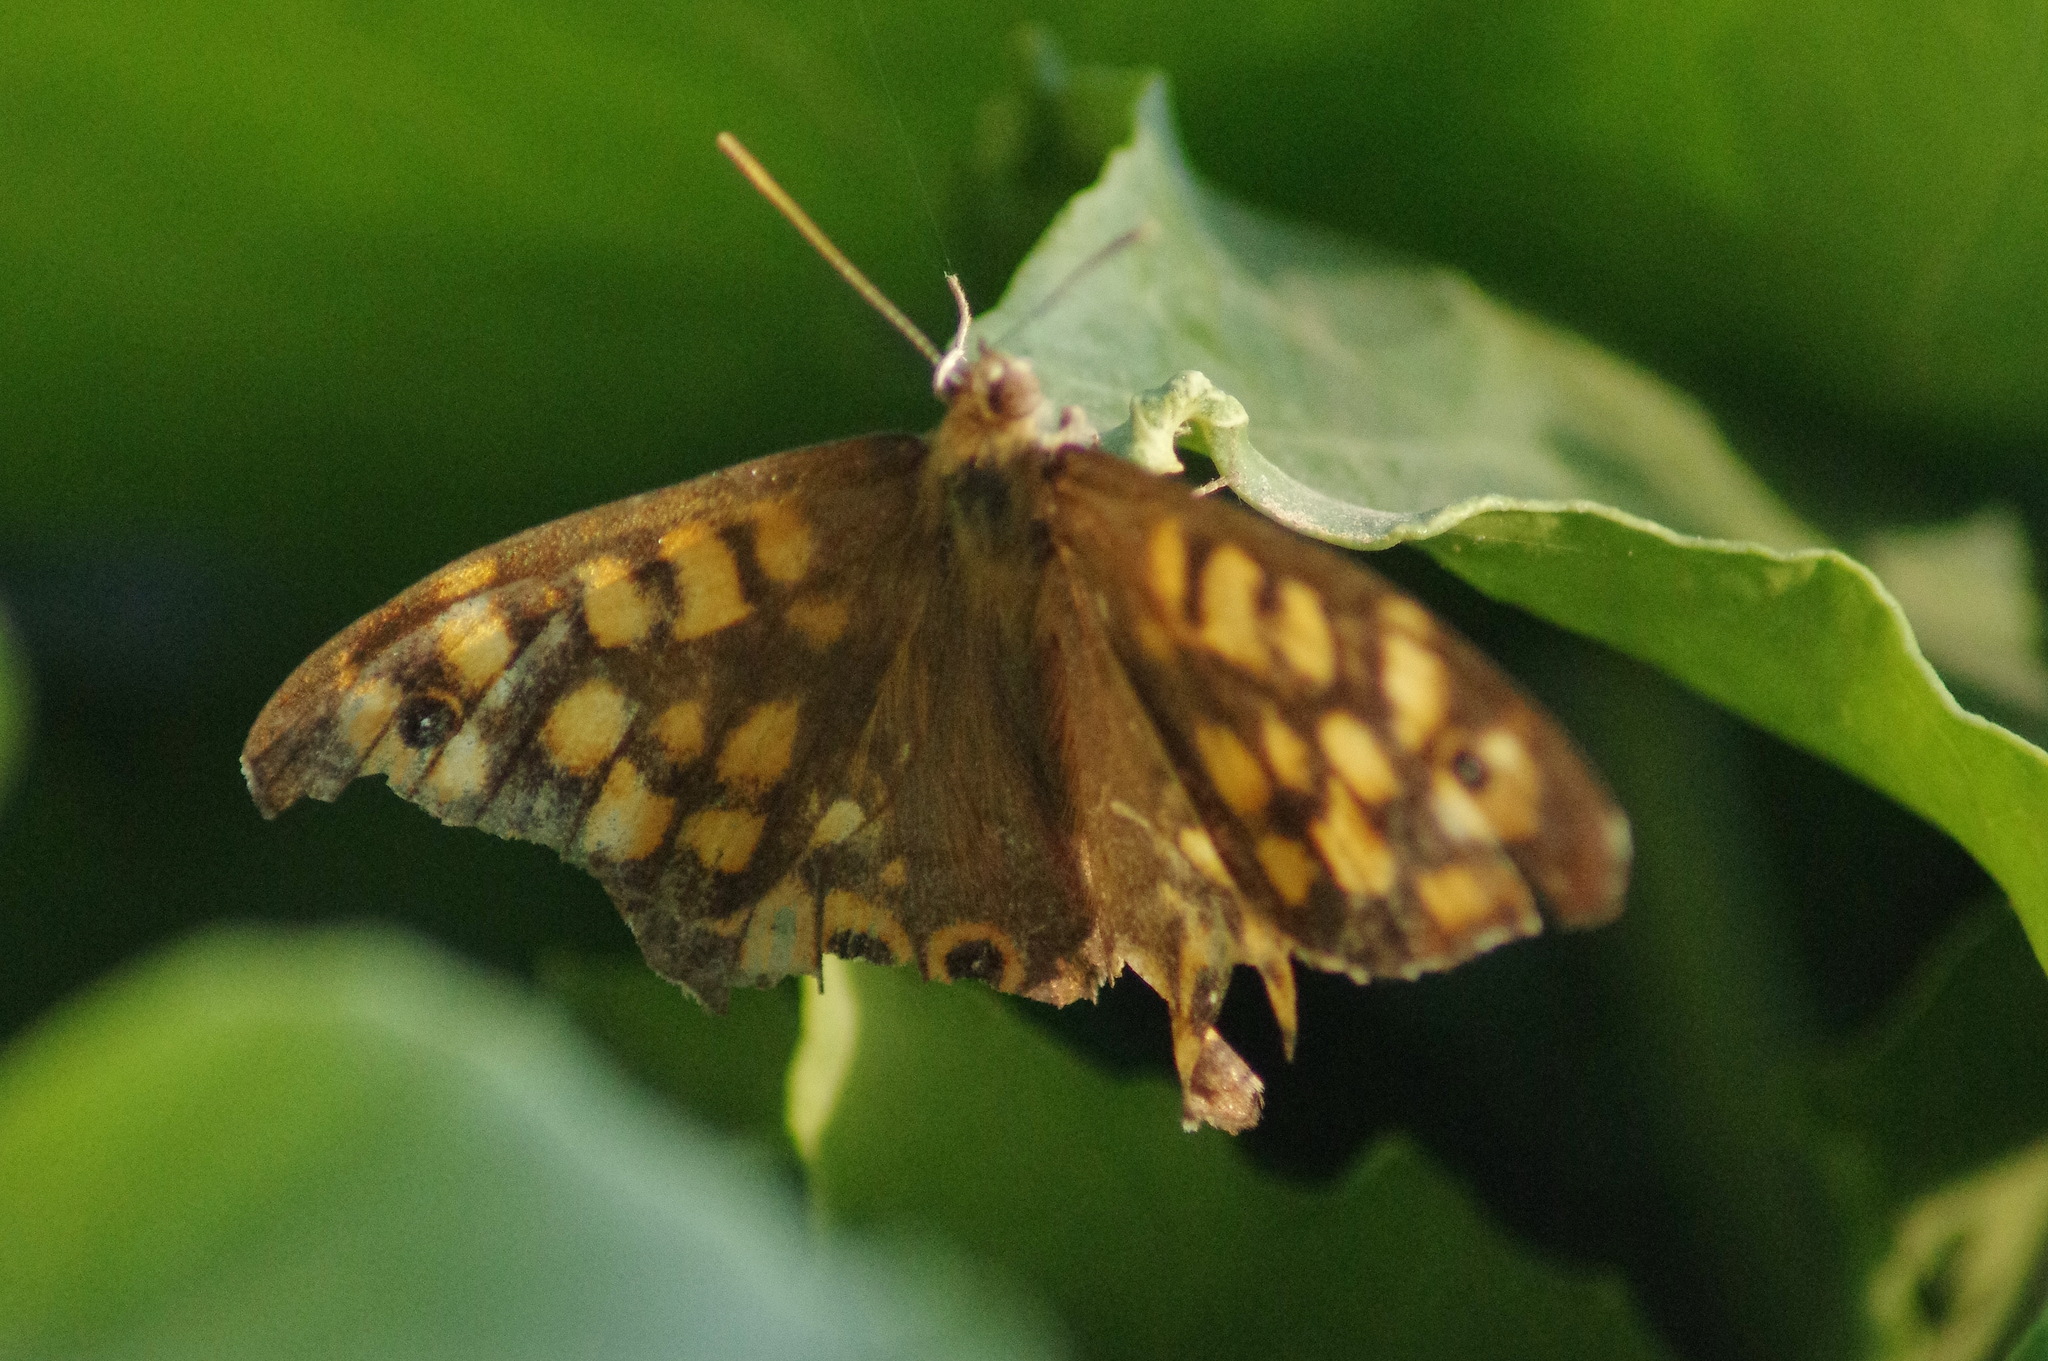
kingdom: Animalia
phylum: Arthropoda
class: Insecta
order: Lepidoptera
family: Nymphalidae
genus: Pararge
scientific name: Pararge aegeria
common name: Speckled wood
